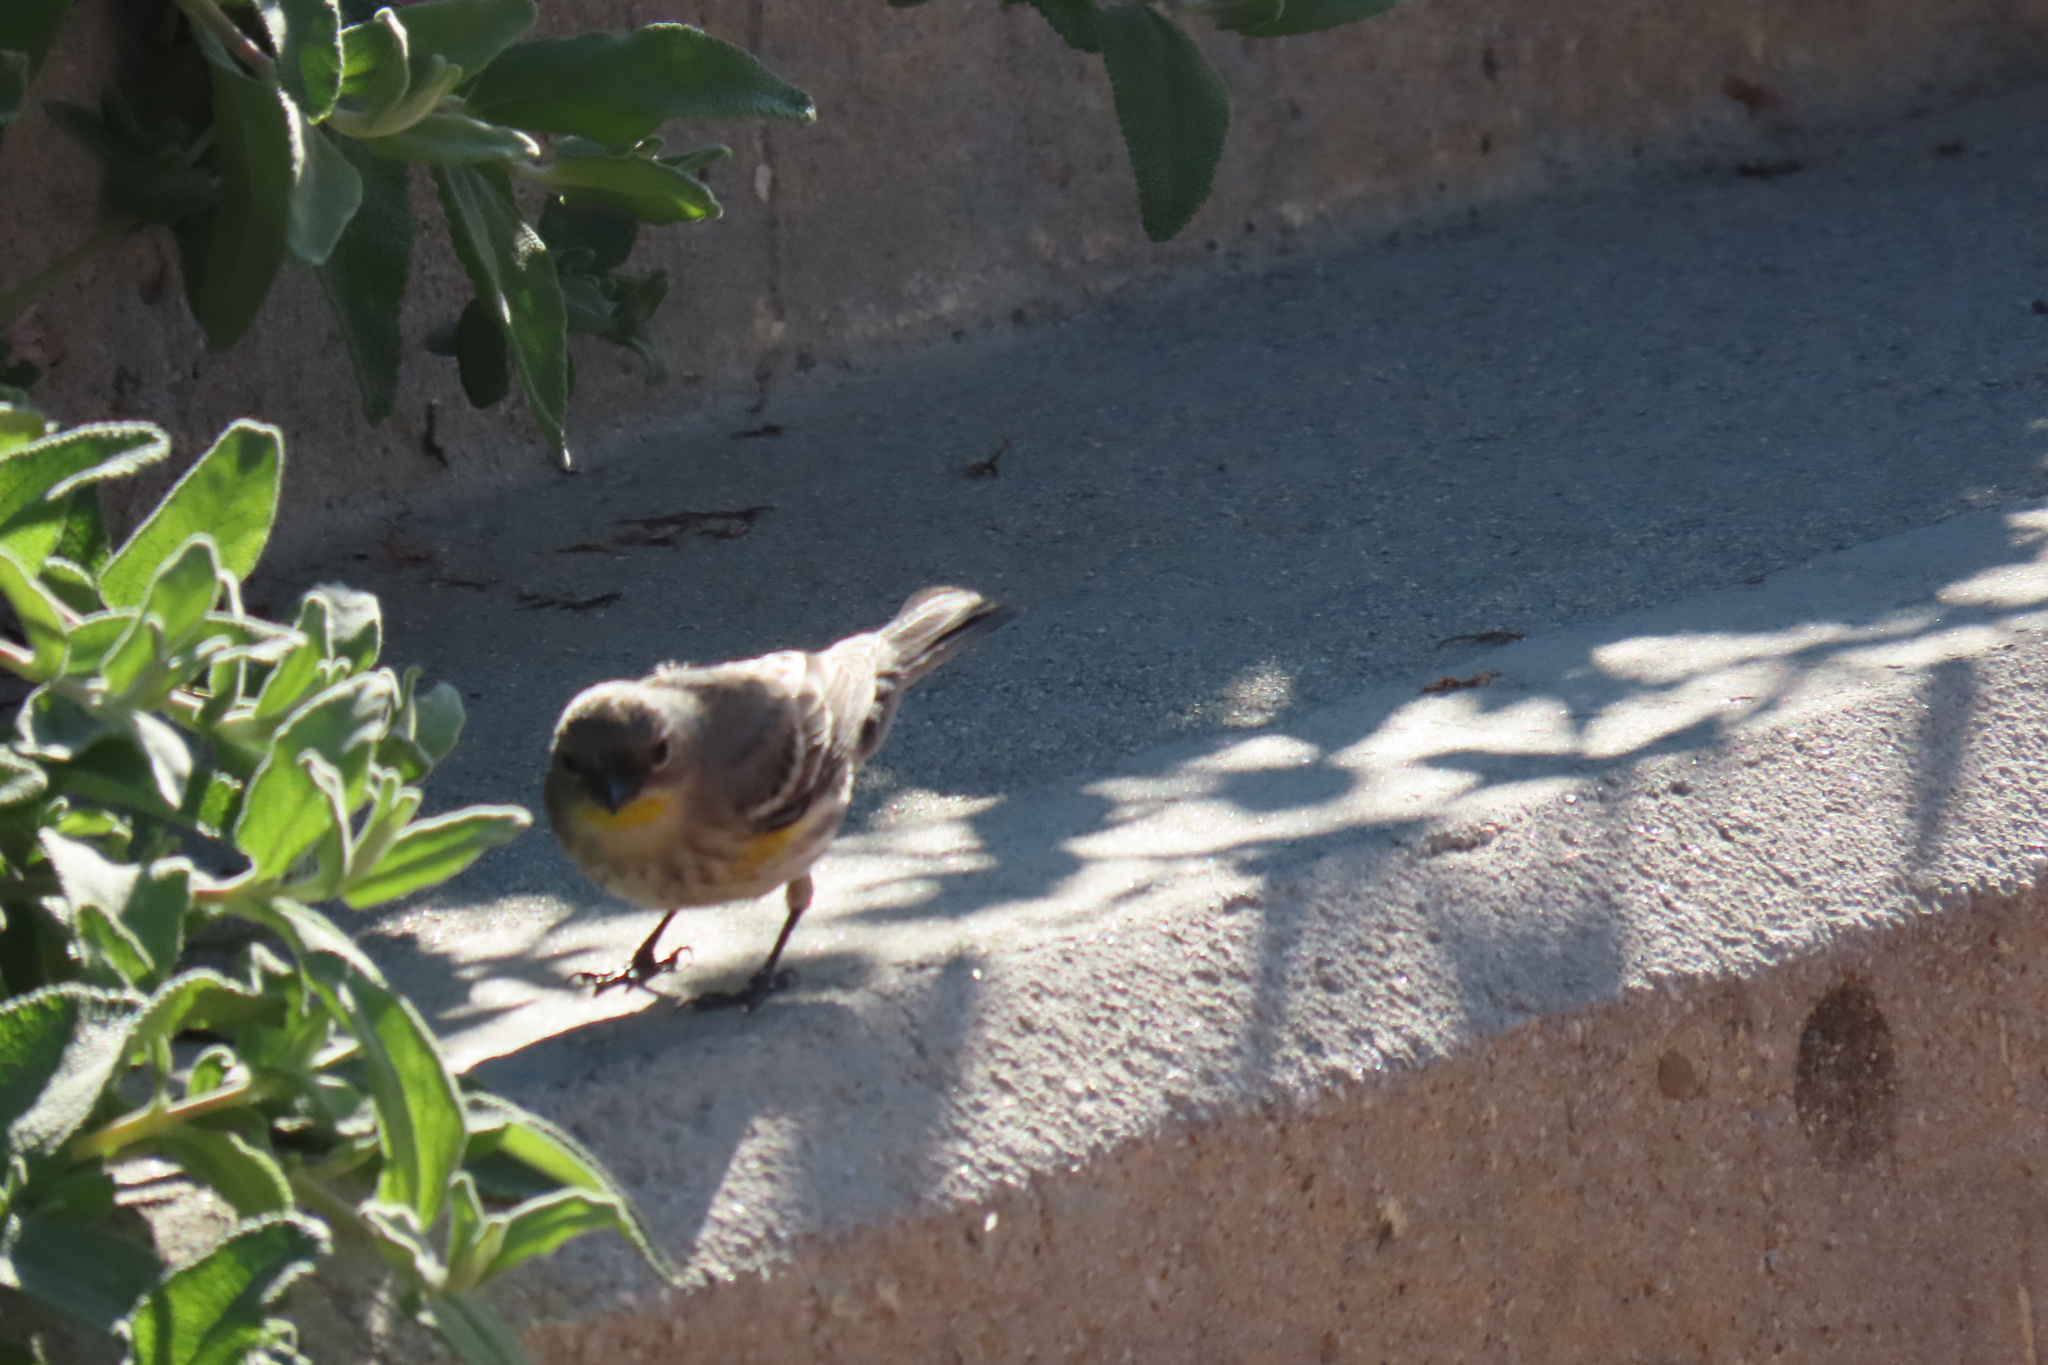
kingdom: Animalia
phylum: Chordata
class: Aves
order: Passeriformes
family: Parulidae
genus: Setophaga
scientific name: Setophaga coronata
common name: Myrtle warbler
